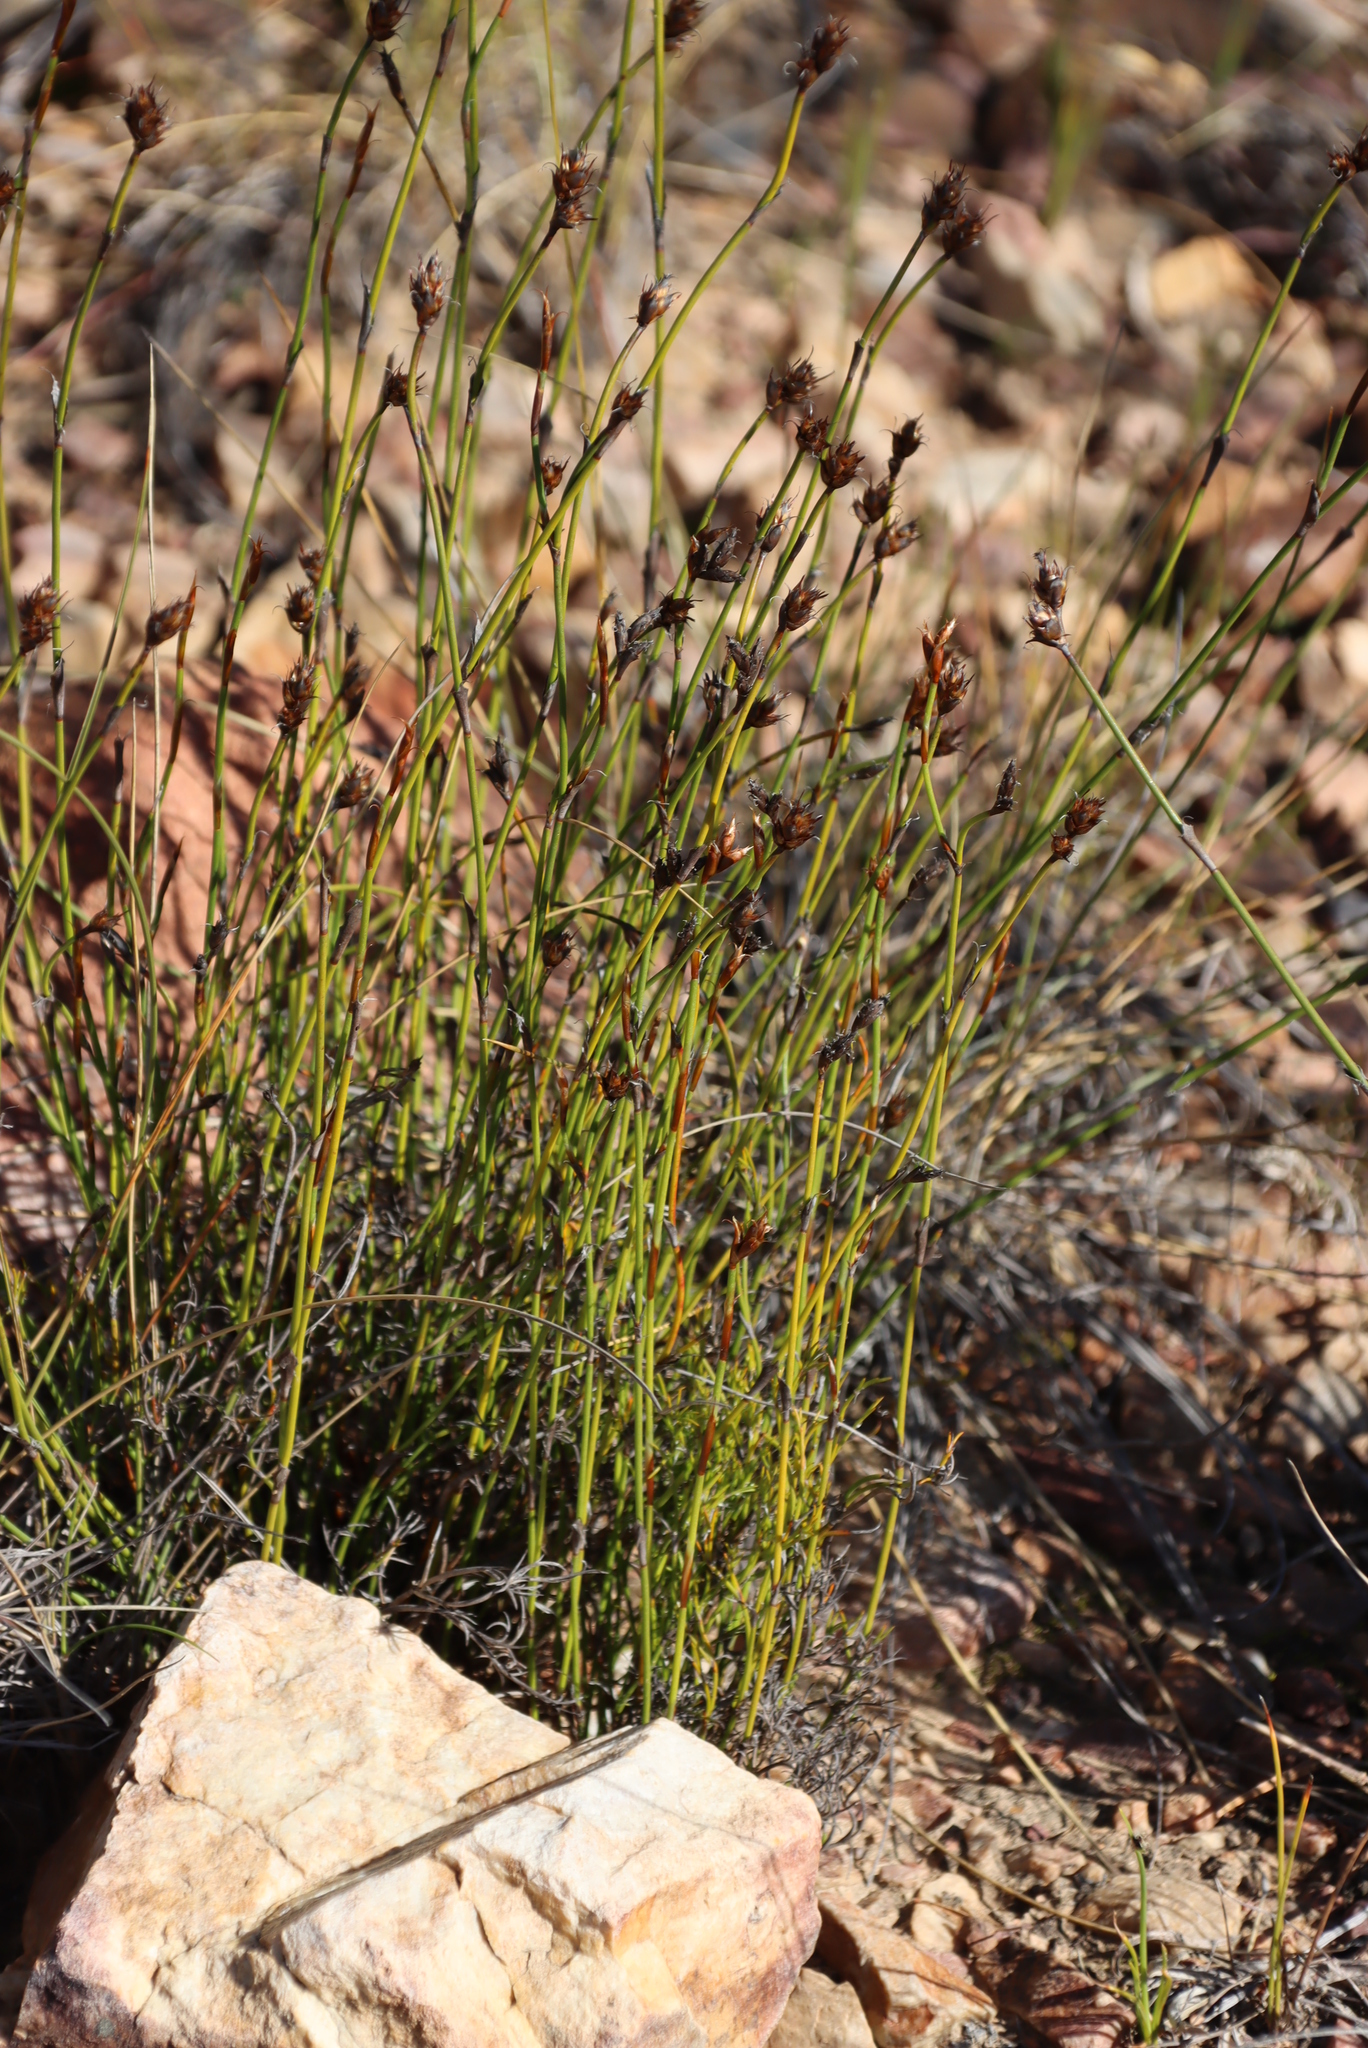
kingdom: Plantae
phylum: Tracheophyta
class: Liliopsida
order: Poales
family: Restionaceae
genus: Restio
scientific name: Restio capensis
